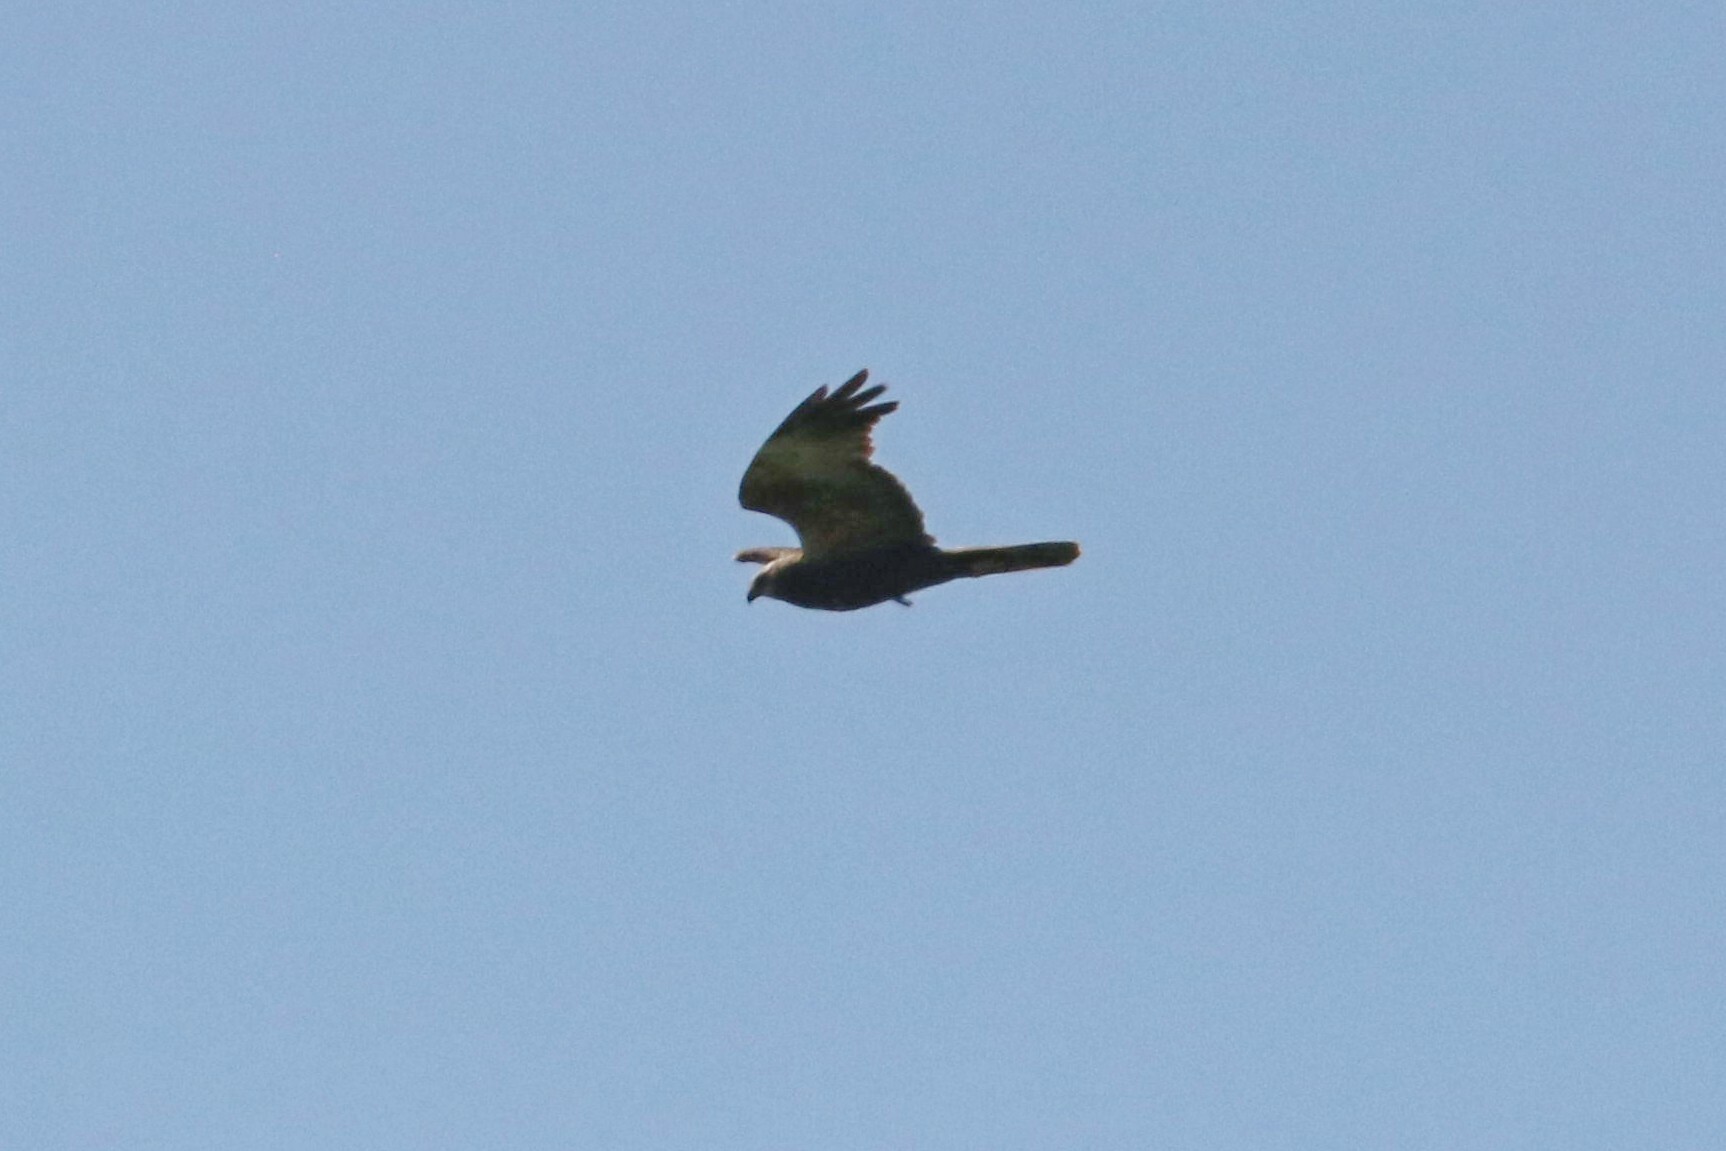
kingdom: Animalia
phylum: Chordata
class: Aves
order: Accipitriformes
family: Accipitridae
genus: Circus
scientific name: Circus aeruginosus
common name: Western marsh harrier
